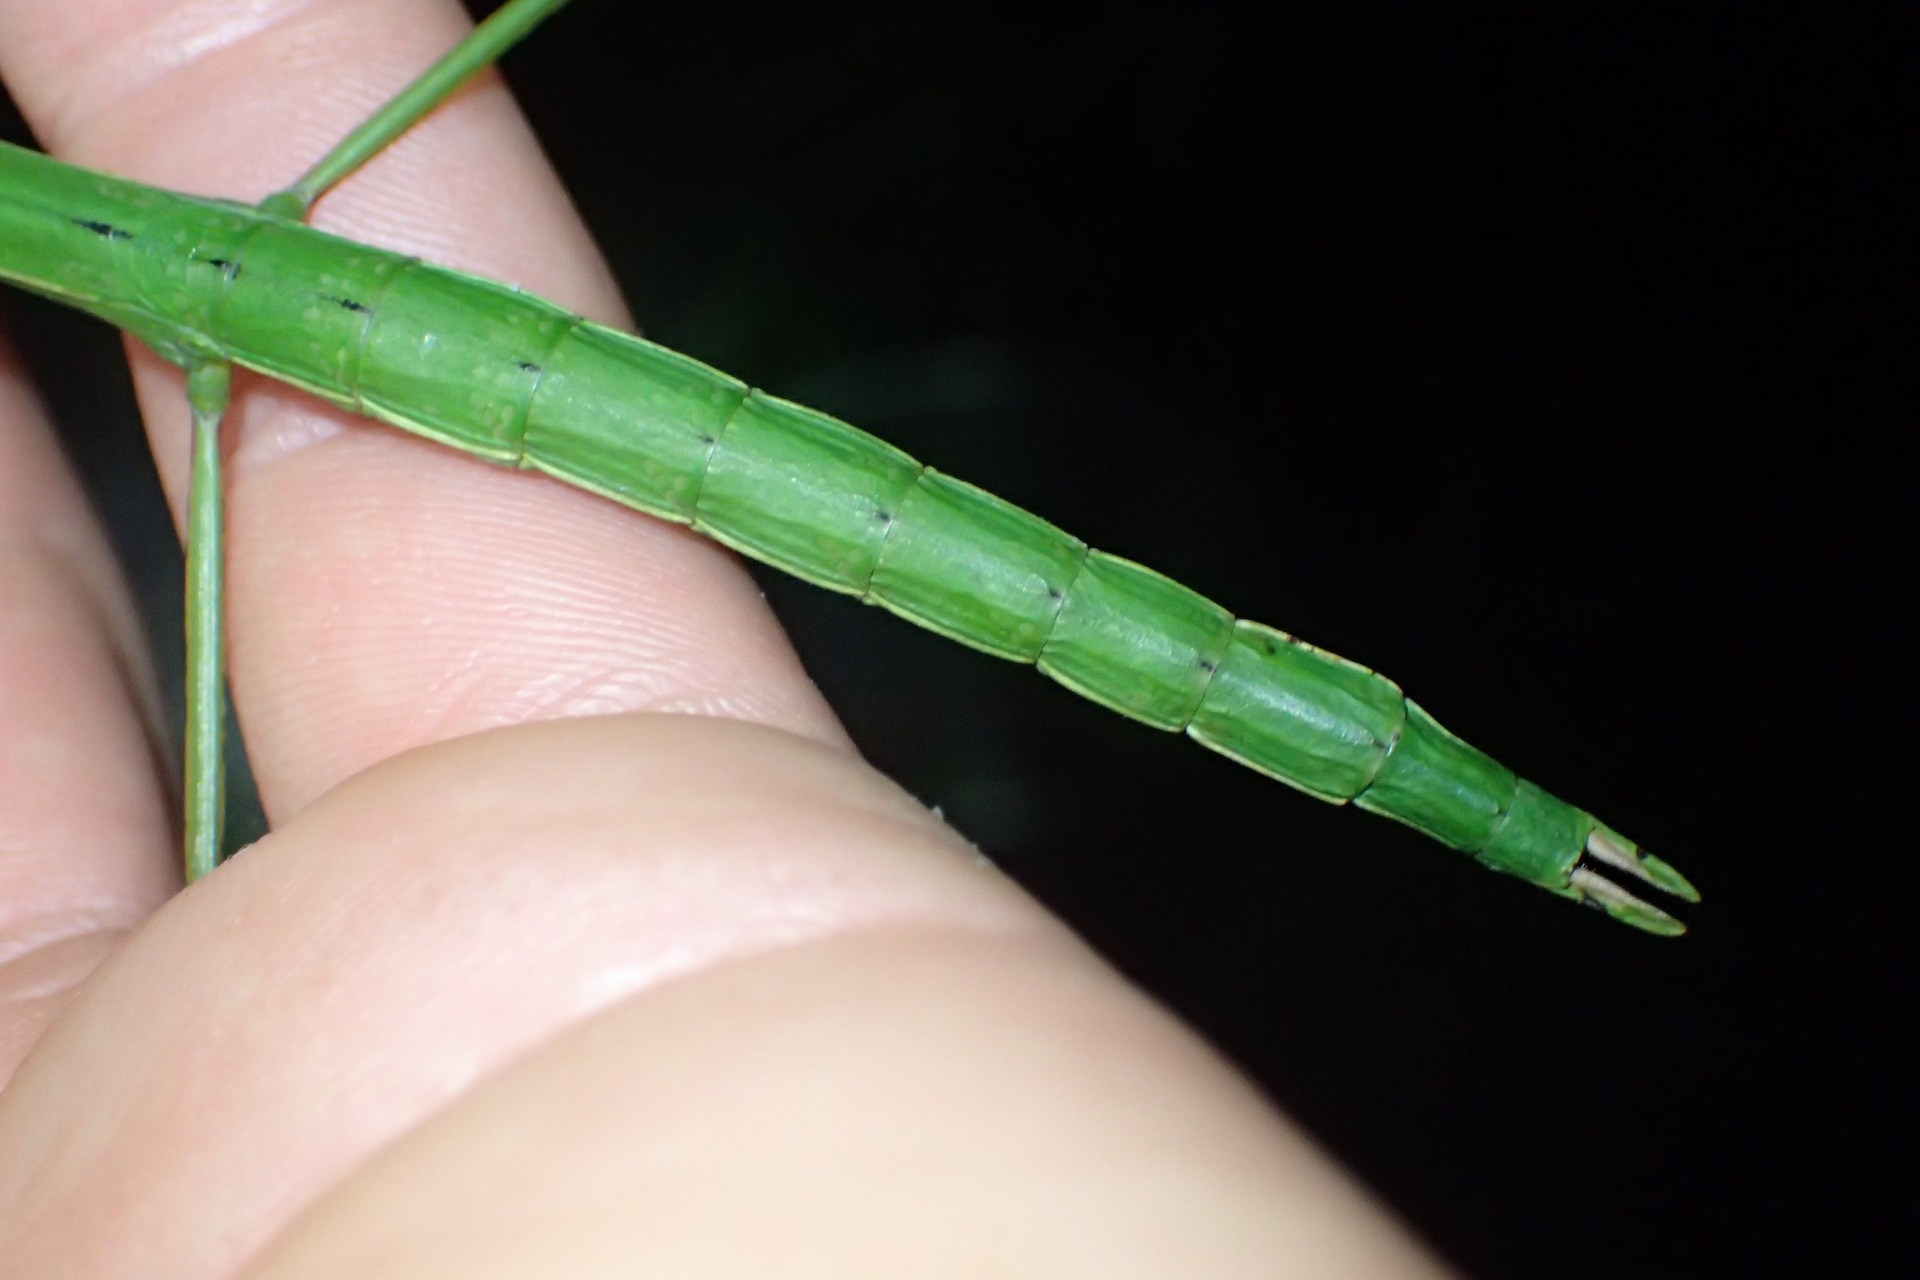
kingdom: Animalia
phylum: Arthropoda
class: Insecta
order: Phasmida
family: Phasmatidae
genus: Clitarchus
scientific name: Clitarchus hookeri
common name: Smooth stick insect
